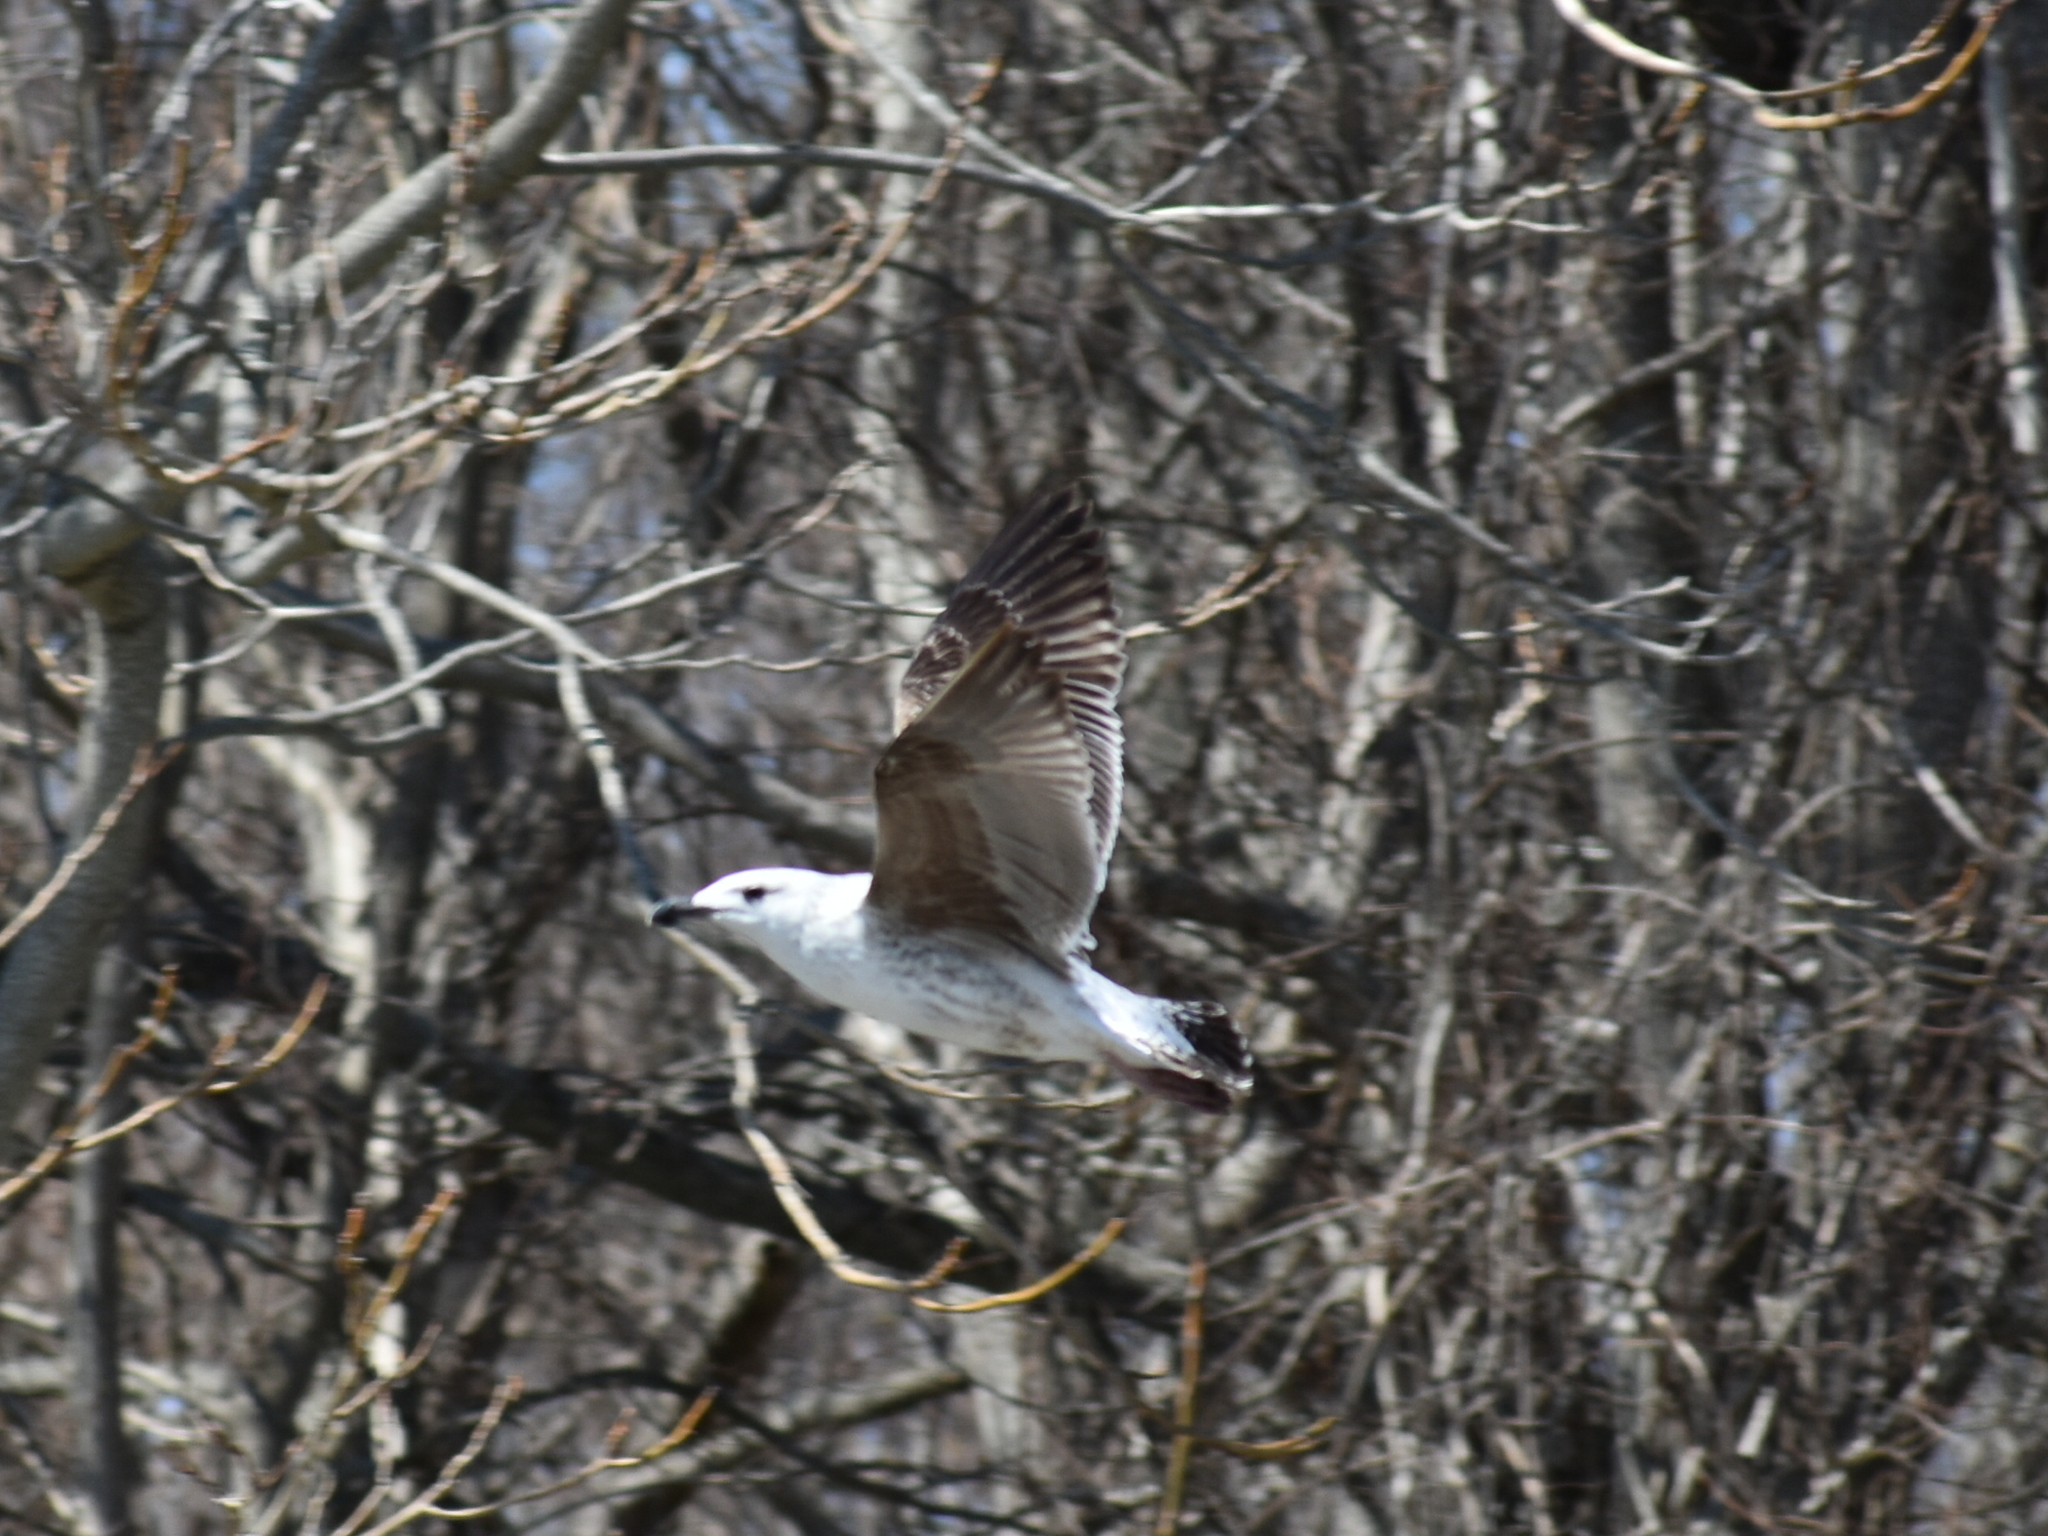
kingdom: Animalia
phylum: Chordata
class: Aves
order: Charadriiformes
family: Laridae
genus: Larus
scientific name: Larus marinus
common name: Great black-backed gull
